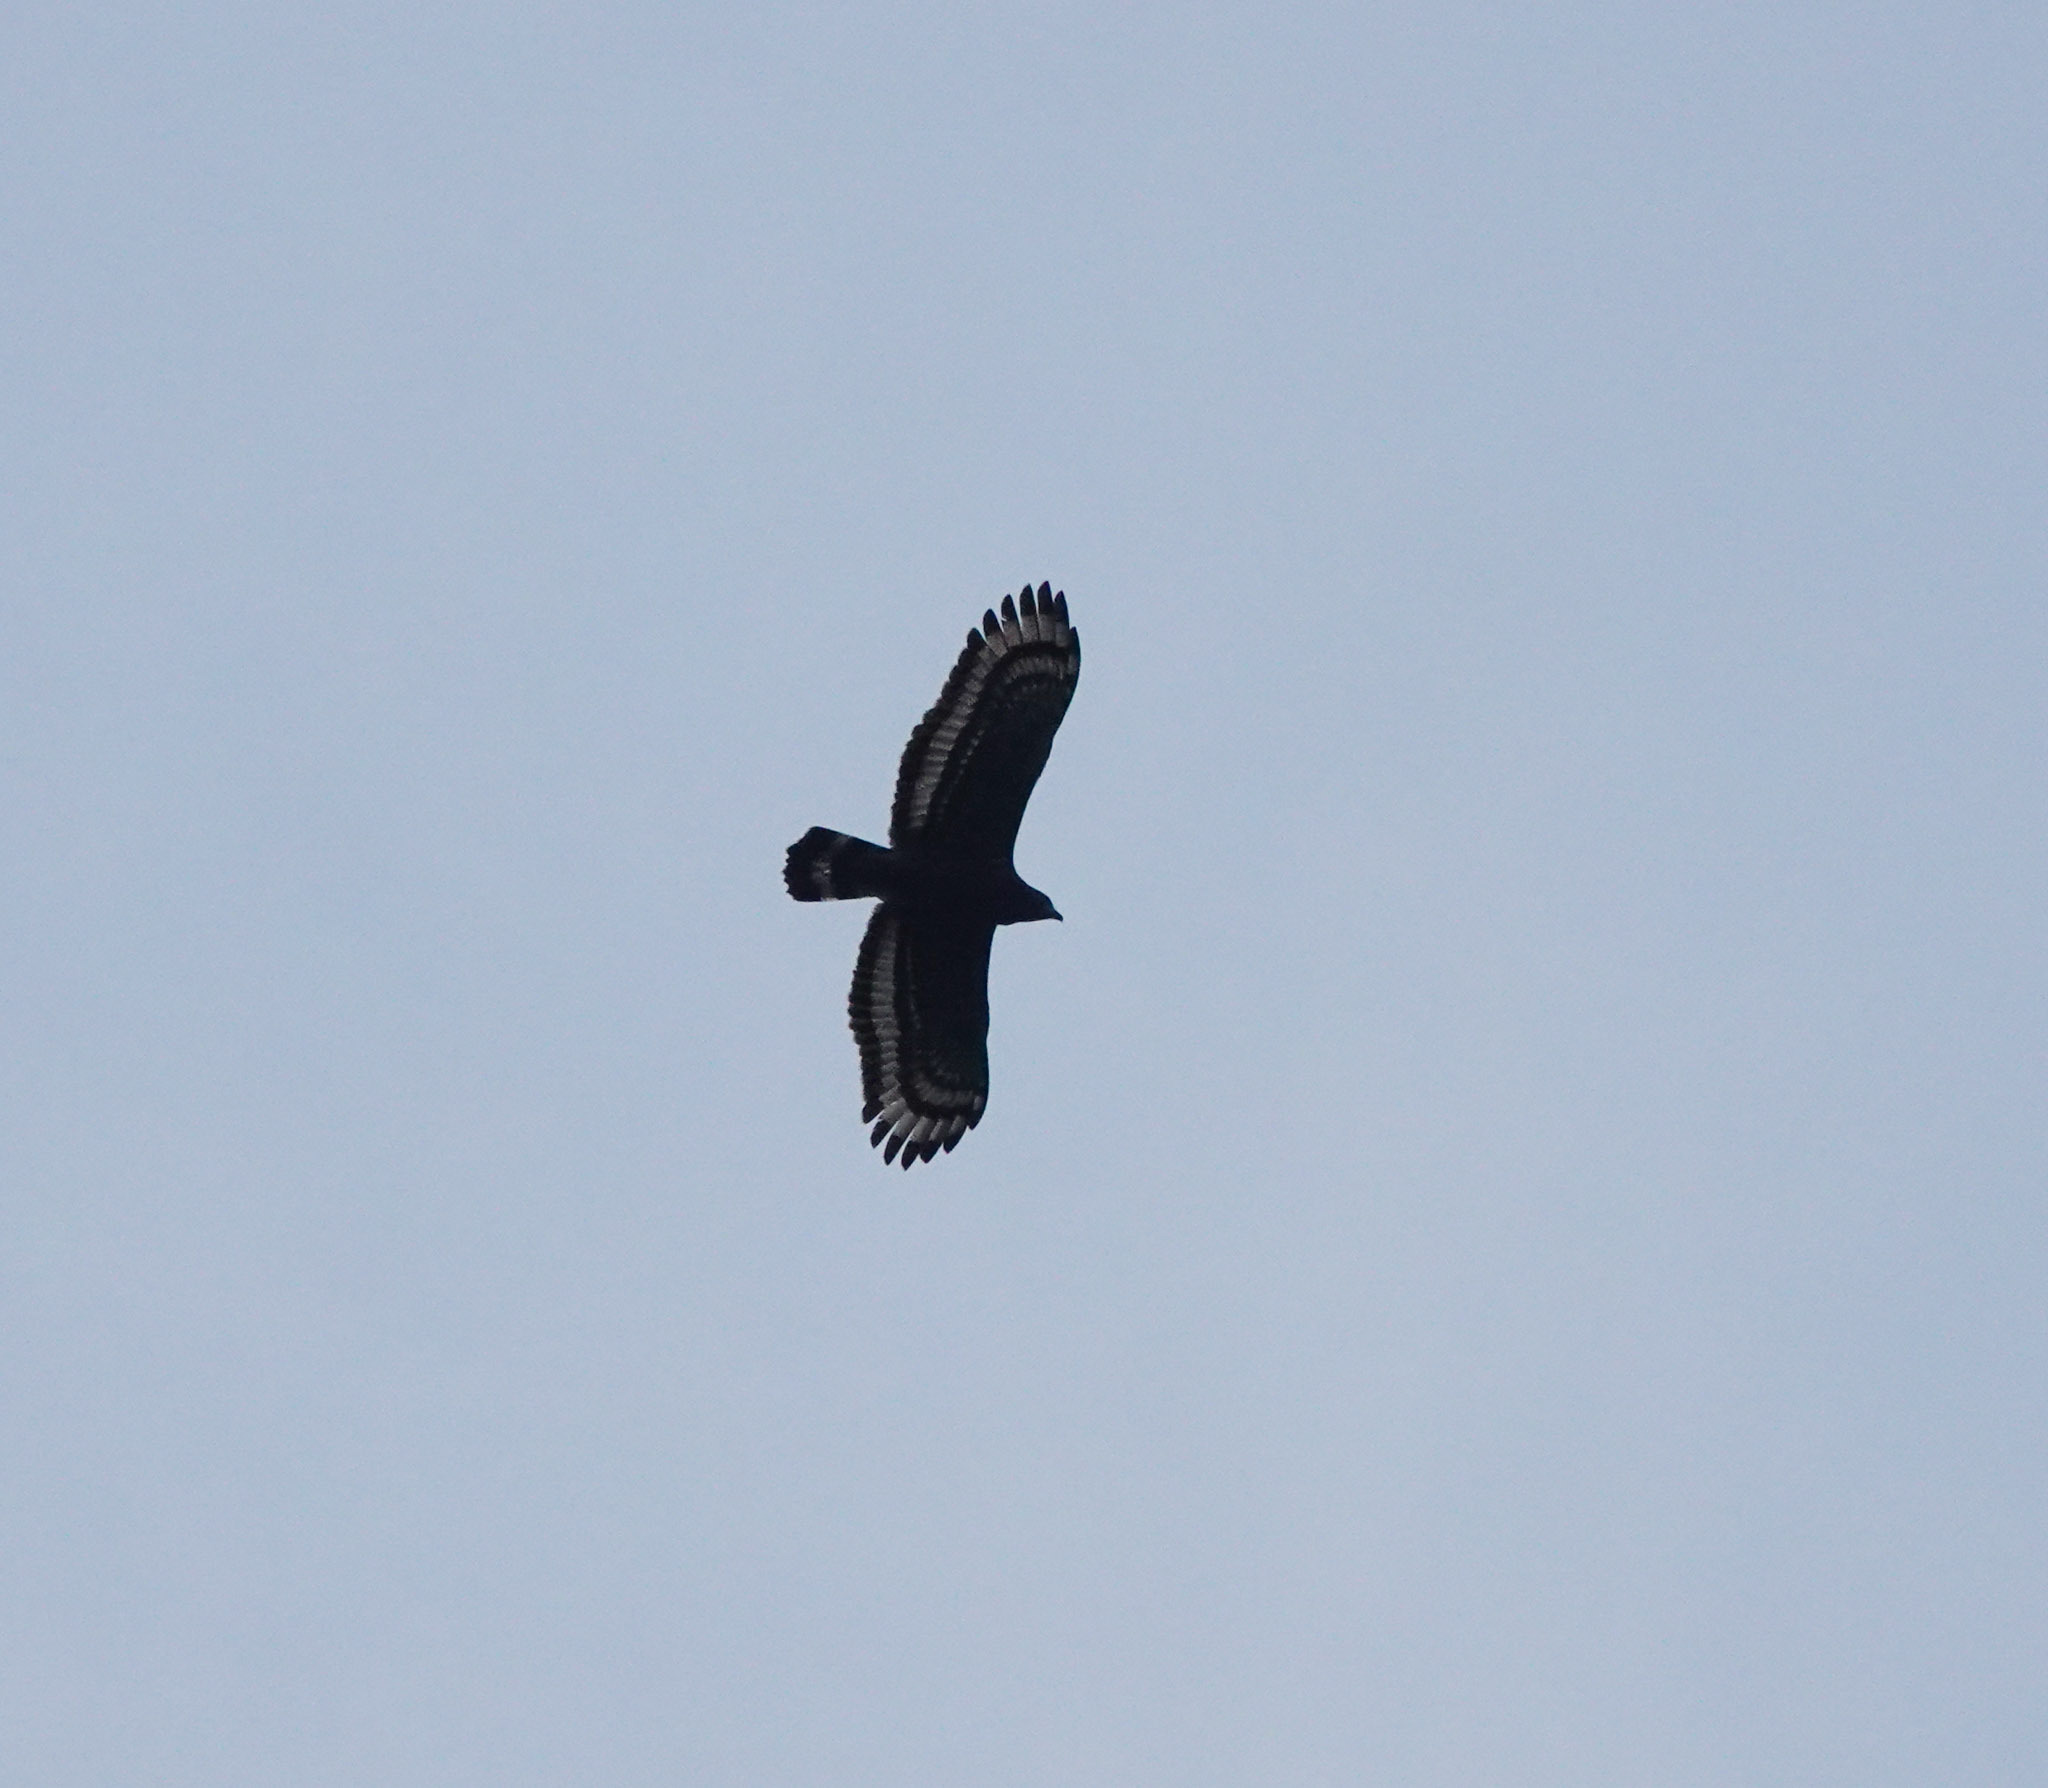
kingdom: Animalia
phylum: Chordata
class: Aves
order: Accipitriformes
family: Accipitridae
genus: Spilornis
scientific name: Spilornis cheela
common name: Crested serpent eagle
